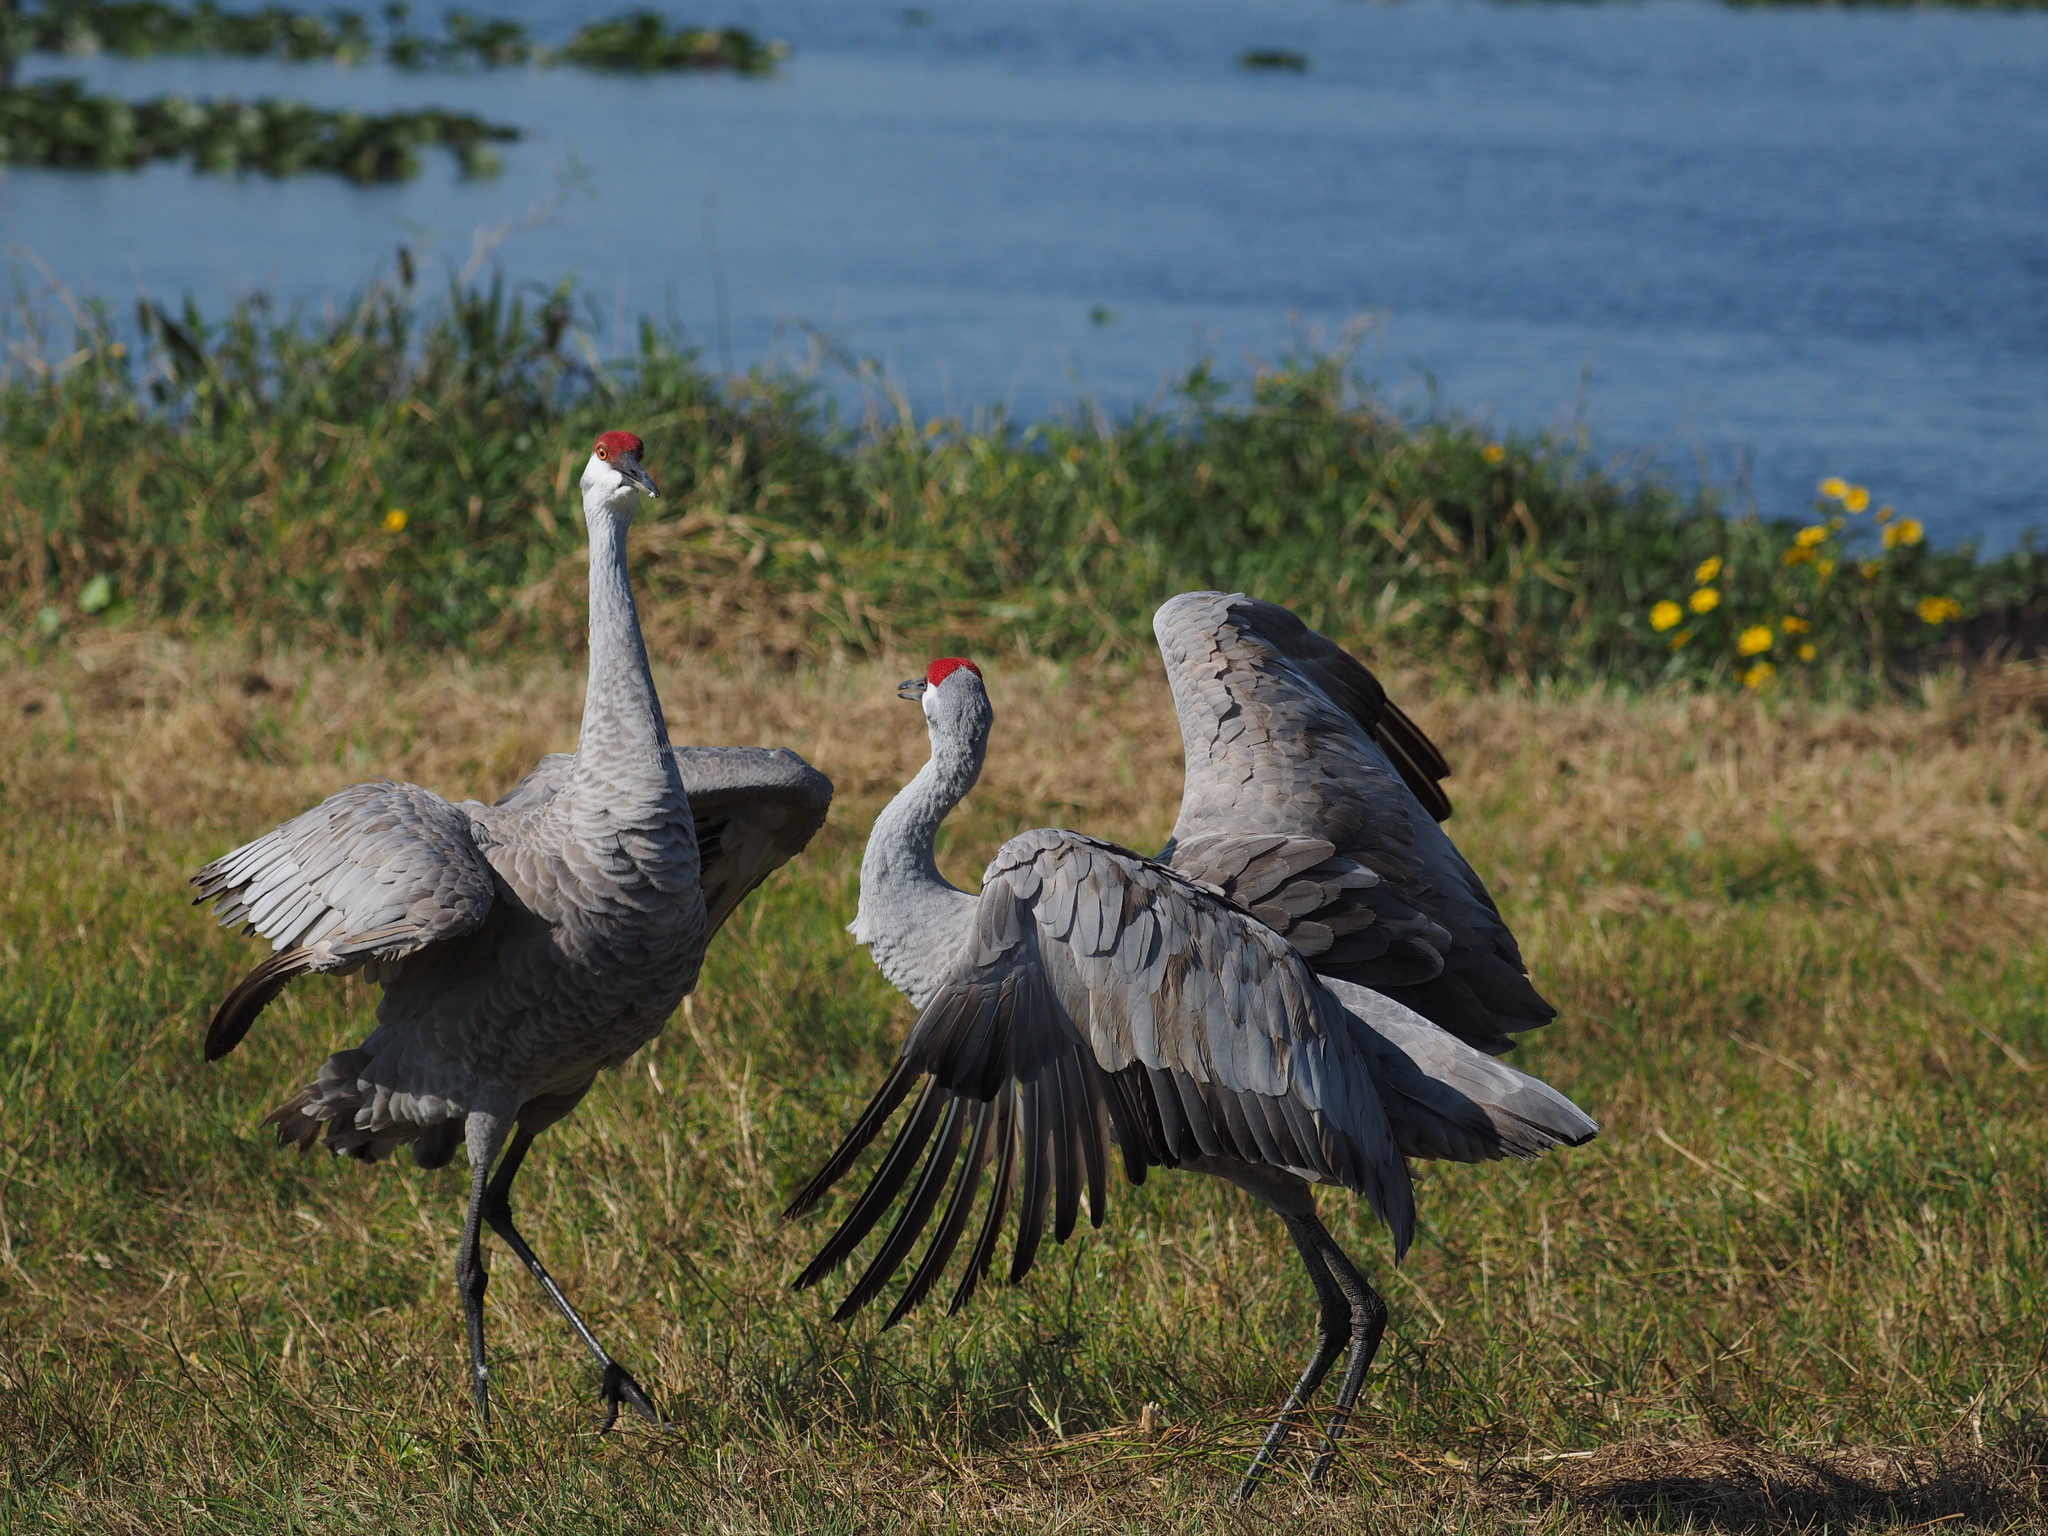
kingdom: Animalia
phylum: Chordata
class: Aves
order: Gruiformes
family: Gruidae
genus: Grus
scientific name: Grus canadensis
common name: Sandhill crane
